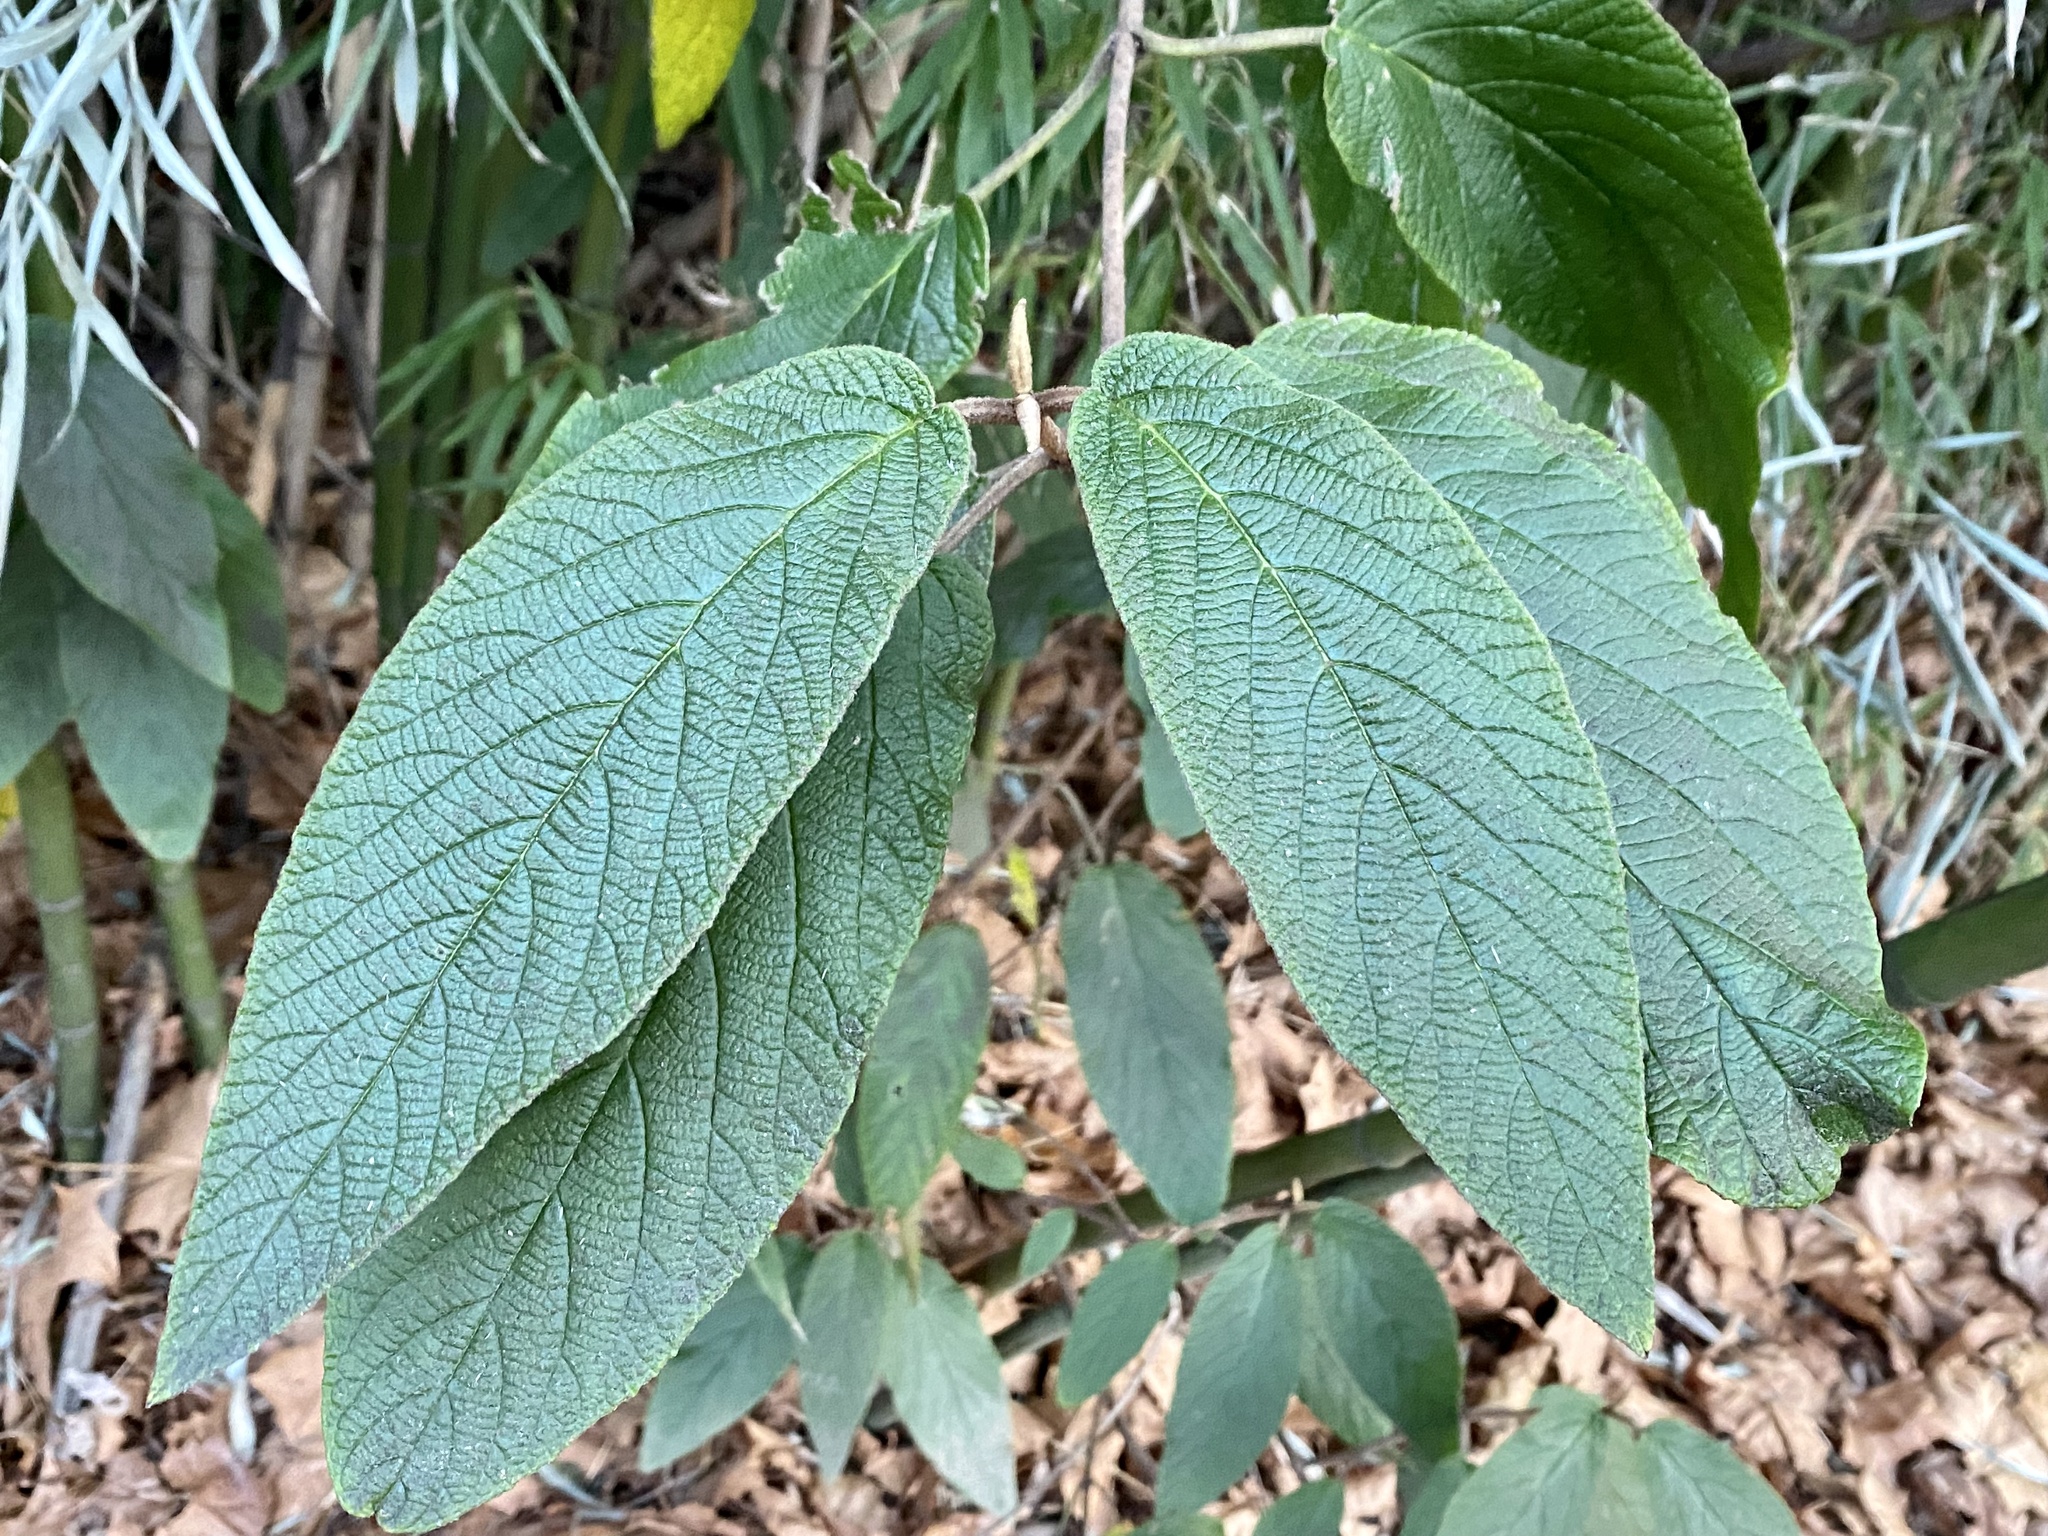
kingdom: Plantae
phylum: Tracheophyta
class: Magnoliopsida
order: Dipsacales
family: Viburnaceae
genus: Viburnum
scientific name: Viburnum rhytidophyllum
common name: Wrinkled viburnum
